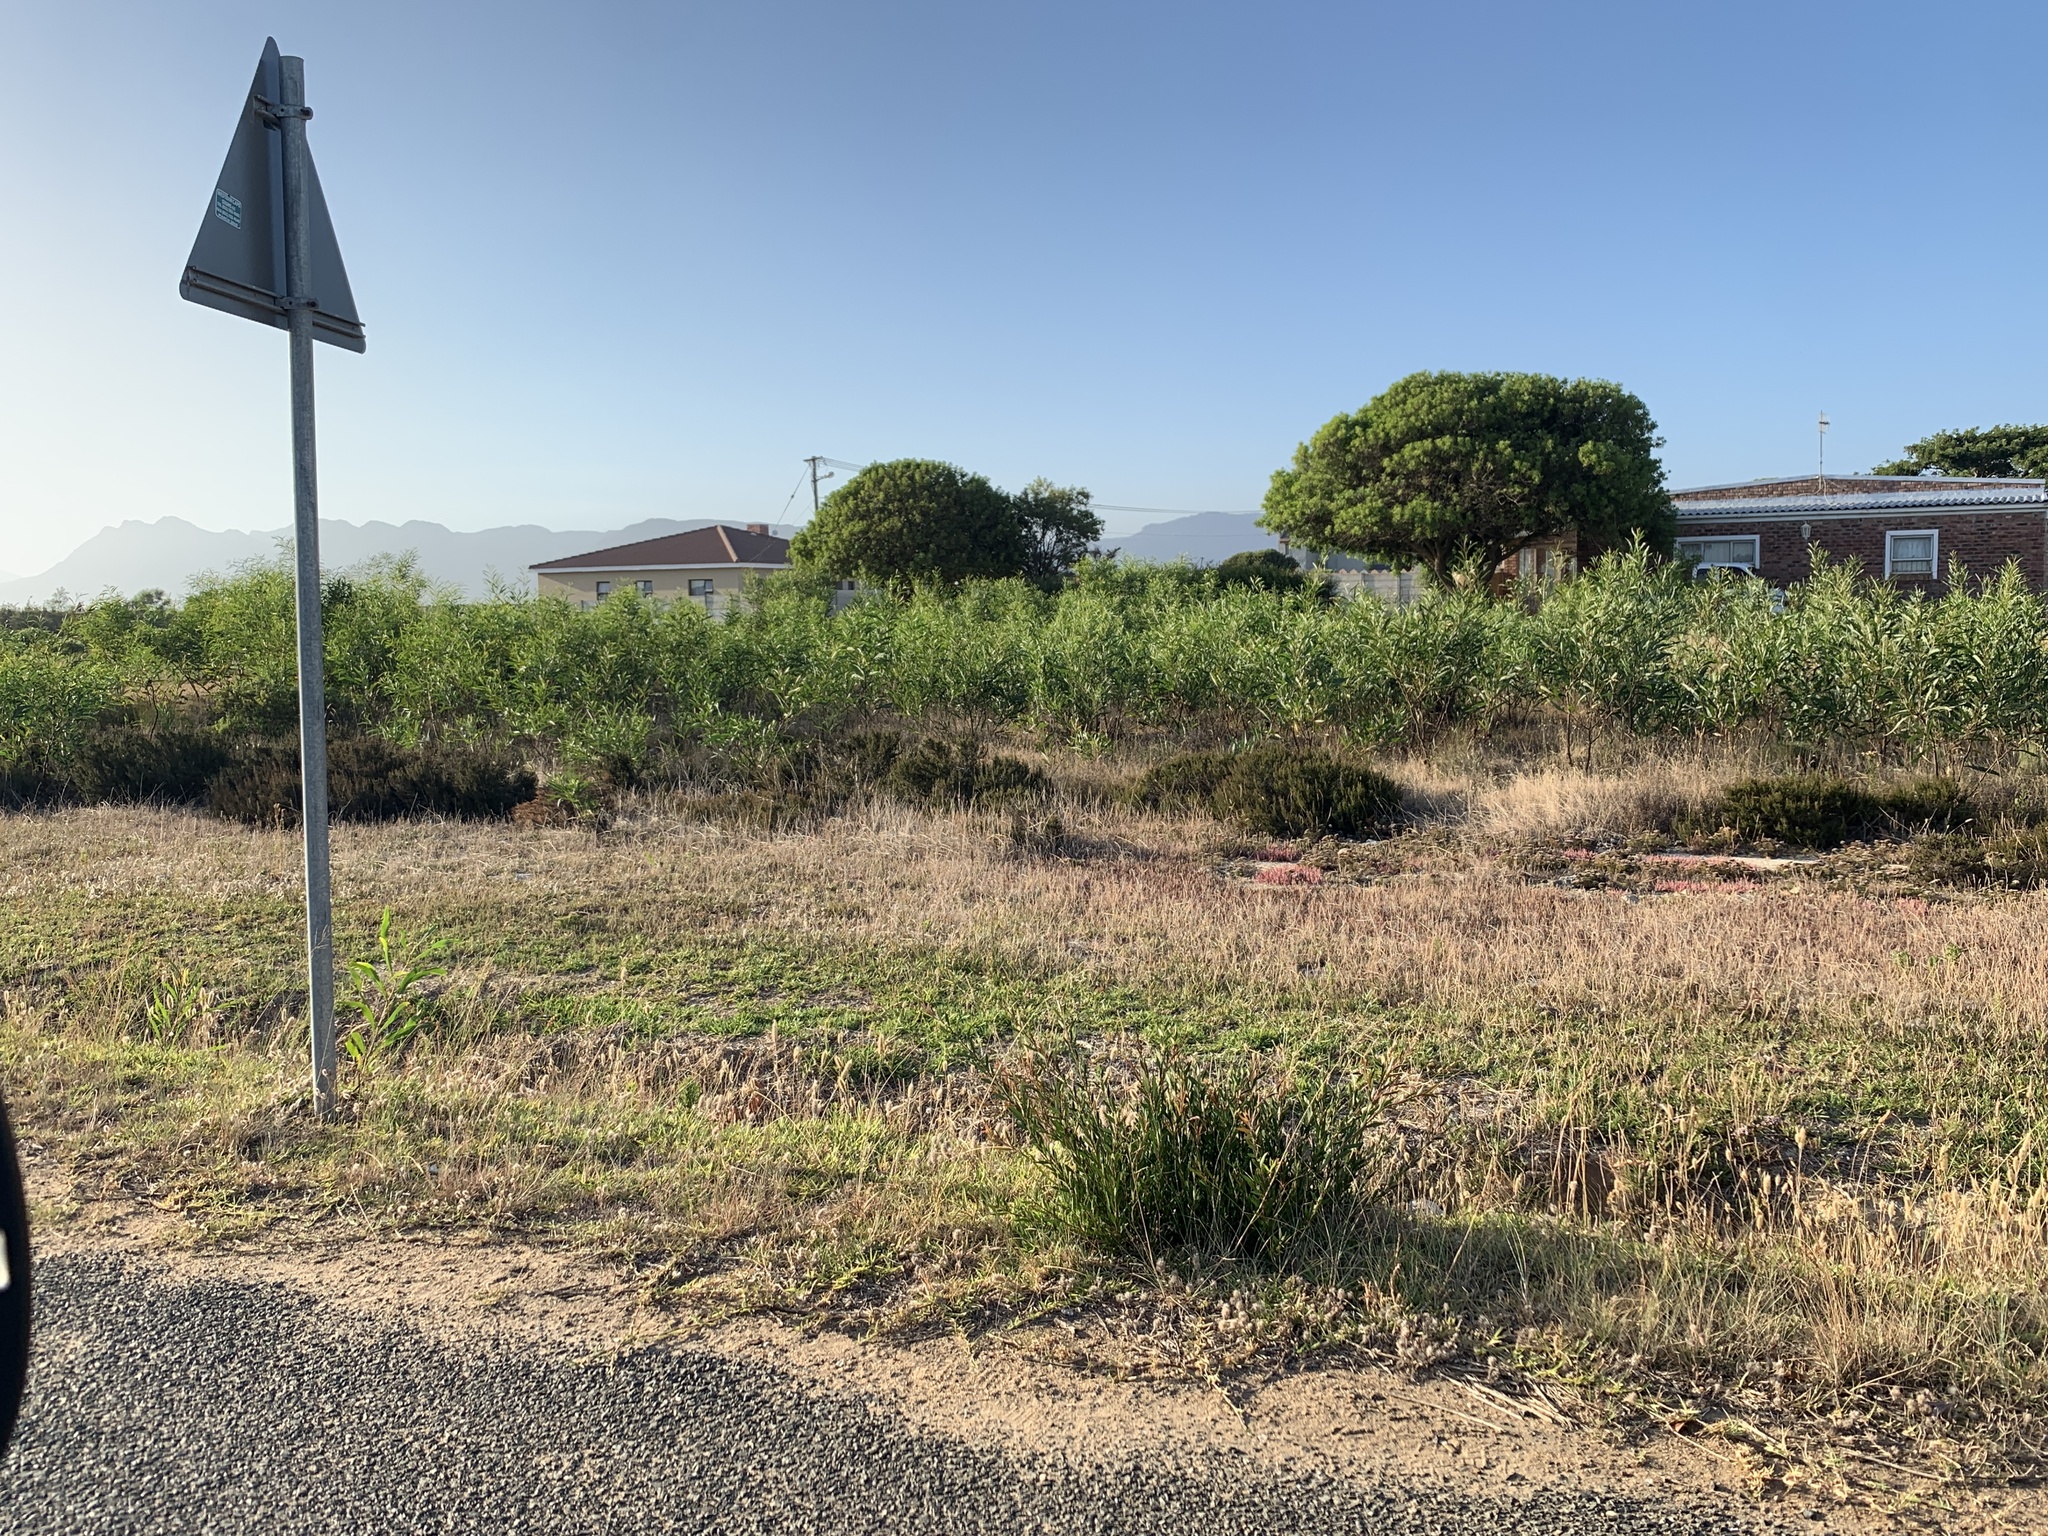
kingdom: Plantae
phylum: Tracheophyta
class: Magnoliopsida
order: Myrtales
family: Myrtaceae
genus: Callistemon
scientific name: Callistemon viminalis
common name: Drooping bottlebrush
